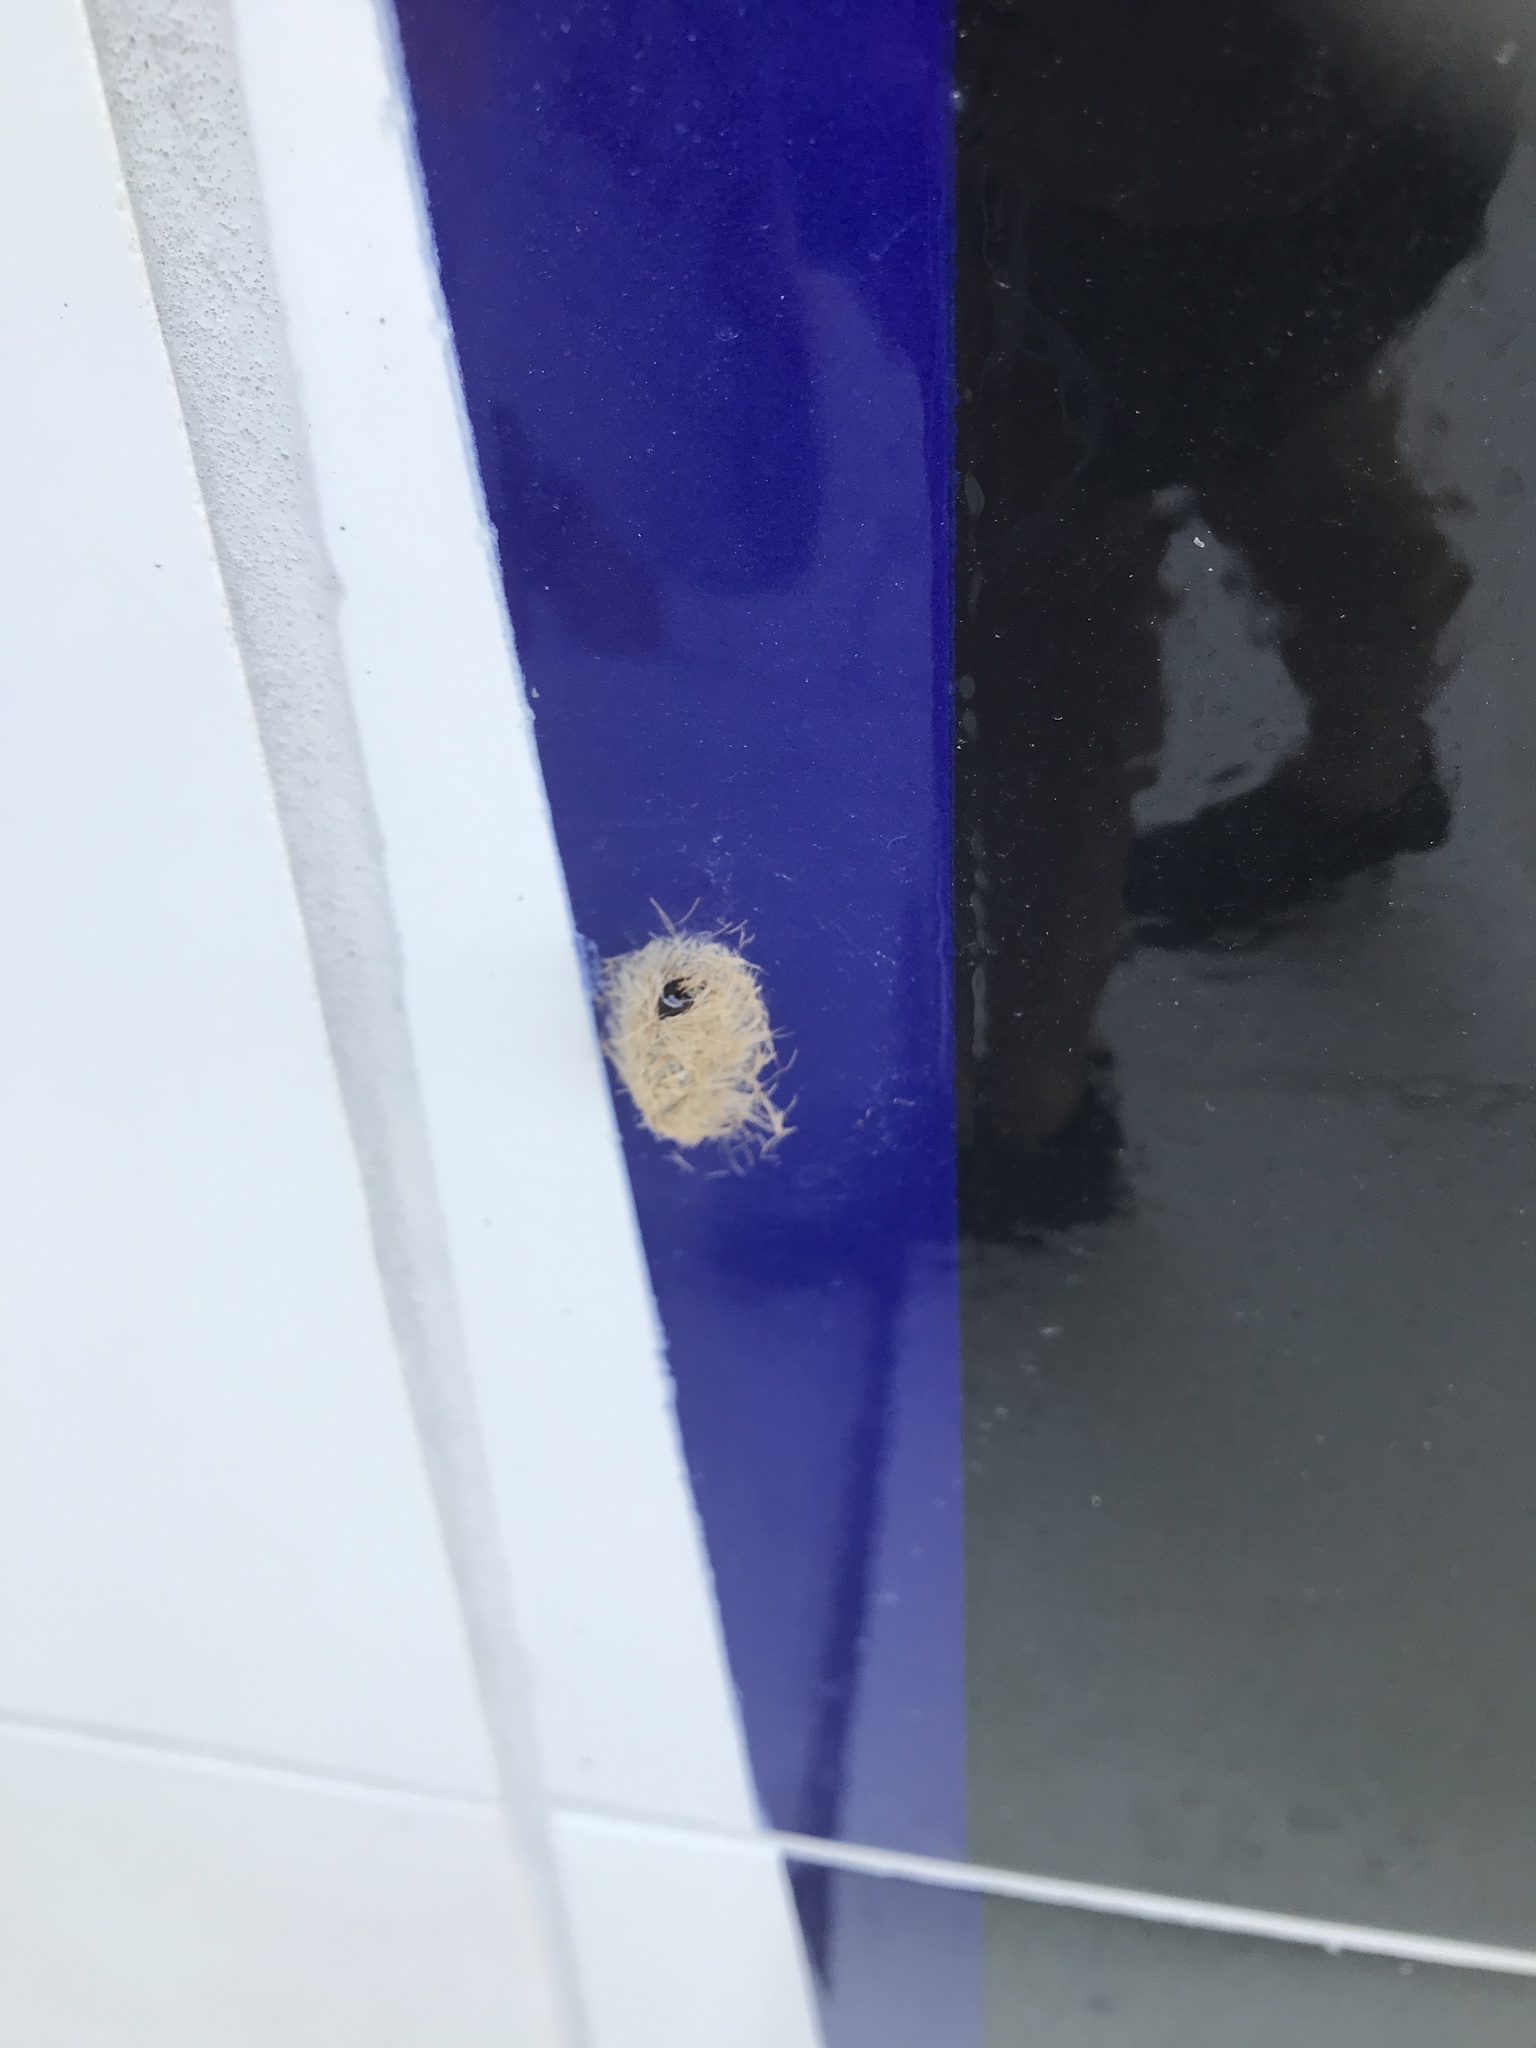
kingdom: Animalia
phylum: Arthropoda
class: Insecta
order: Lepidoptera
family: Erebidae
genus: Lymire
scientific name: Lymire edwardsii
